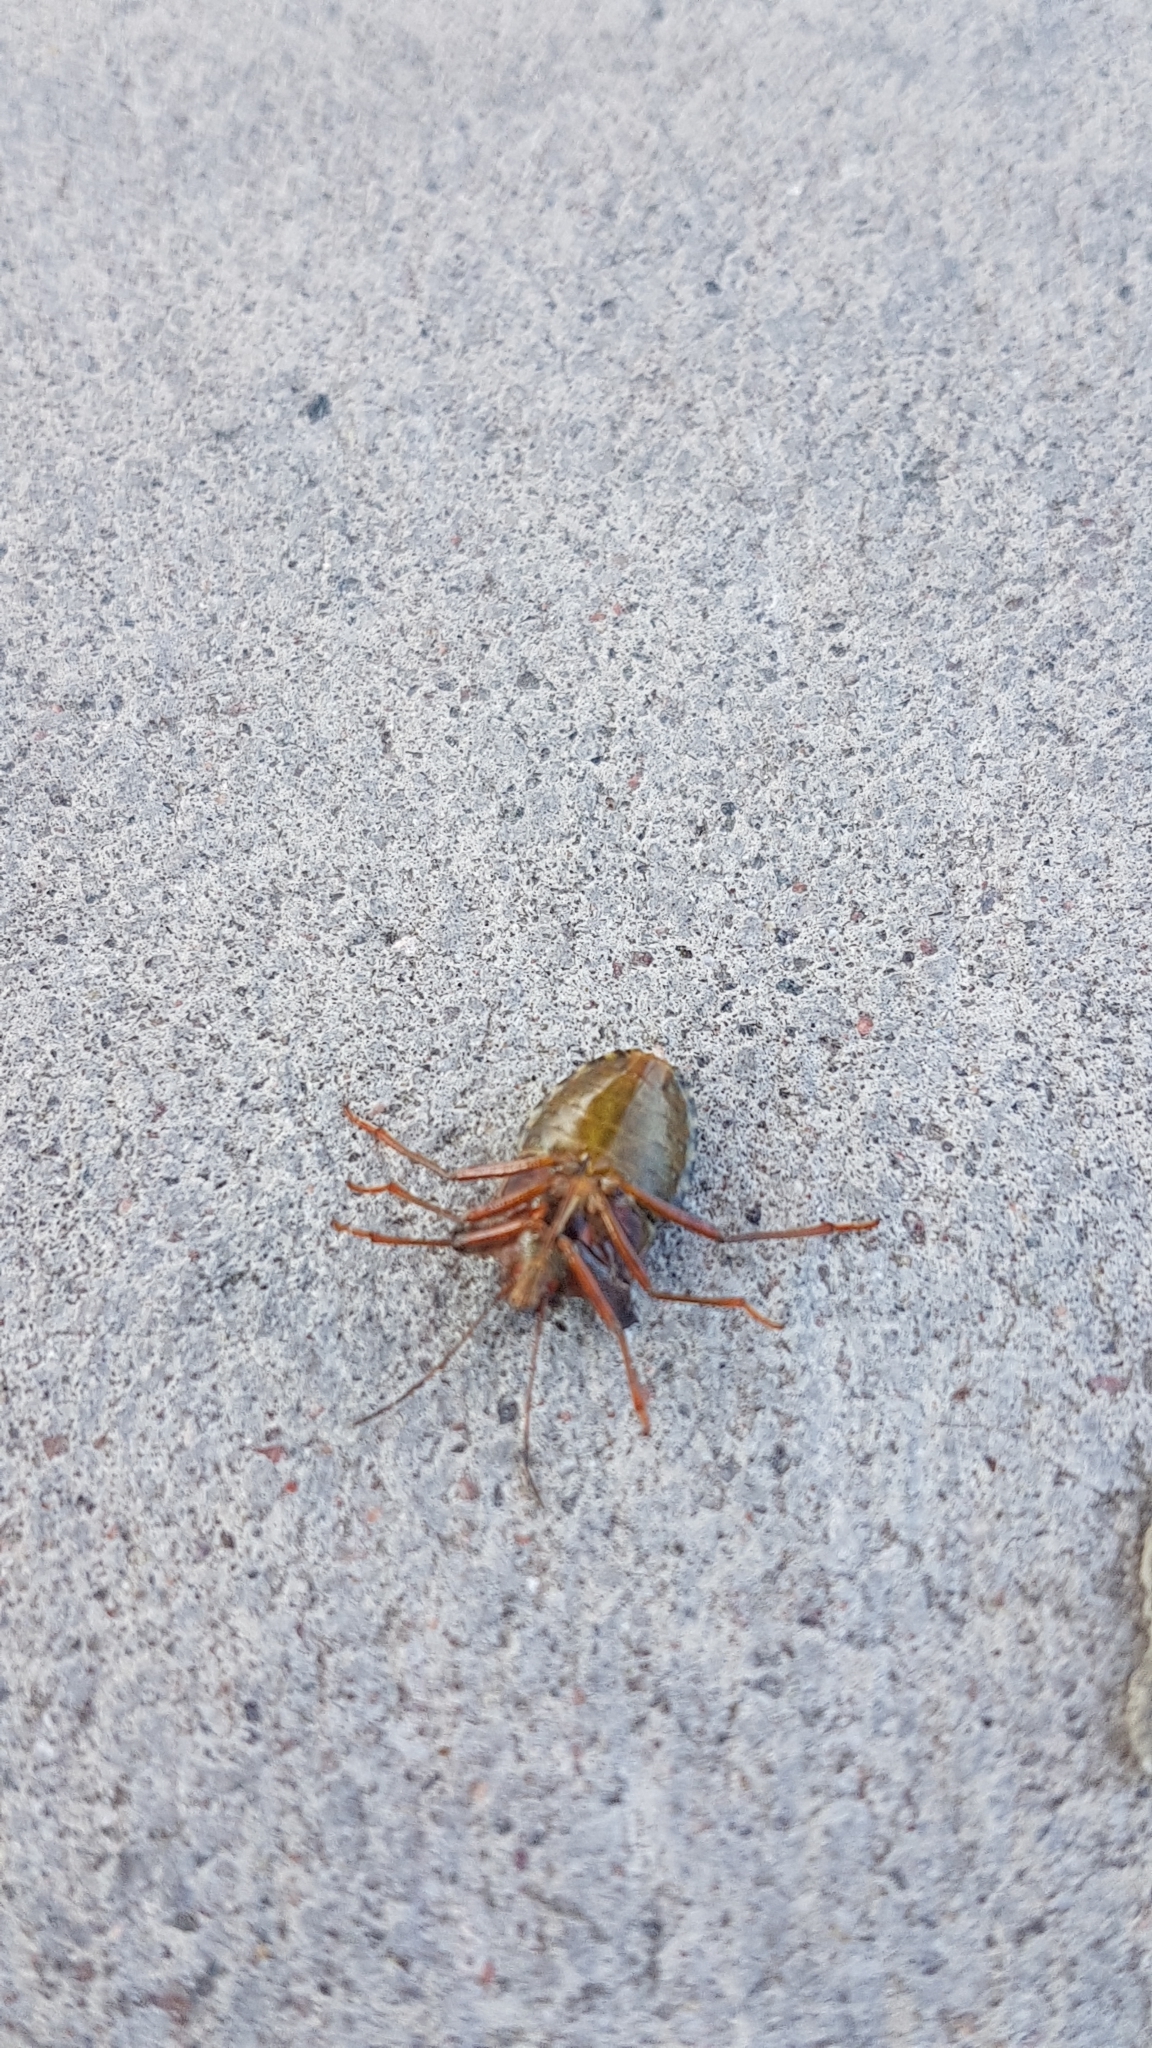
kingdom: Animalia
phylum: Arthropoda
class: Insecta
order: Hemiptera
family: Pentatomidae
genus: Pentatoma
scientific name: Pentatoma rufipes
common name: Forest bug
